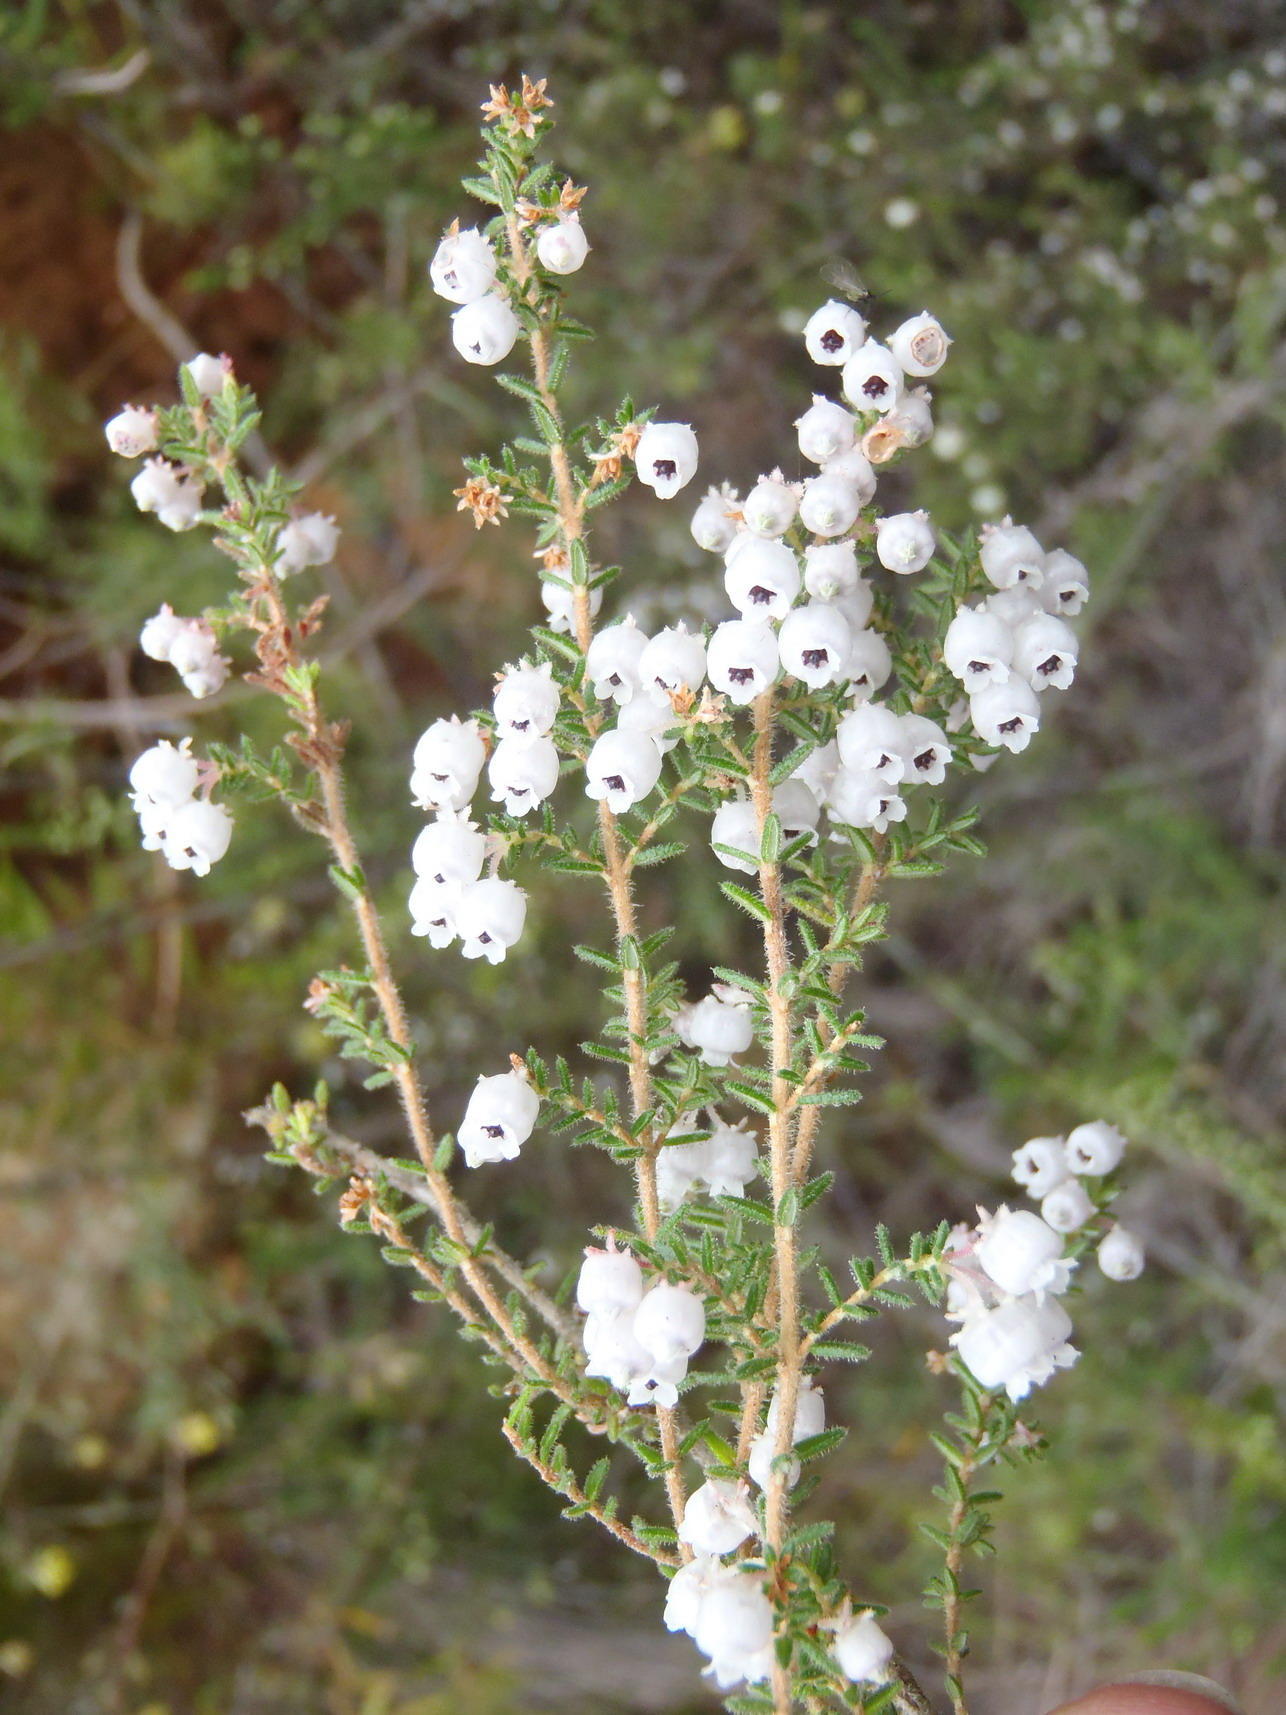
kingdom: Plantae
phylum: Tracheophyta
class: Magnoliopsida
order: Ericales
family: Ericaceae
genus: Erica
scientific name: Erica formosa
